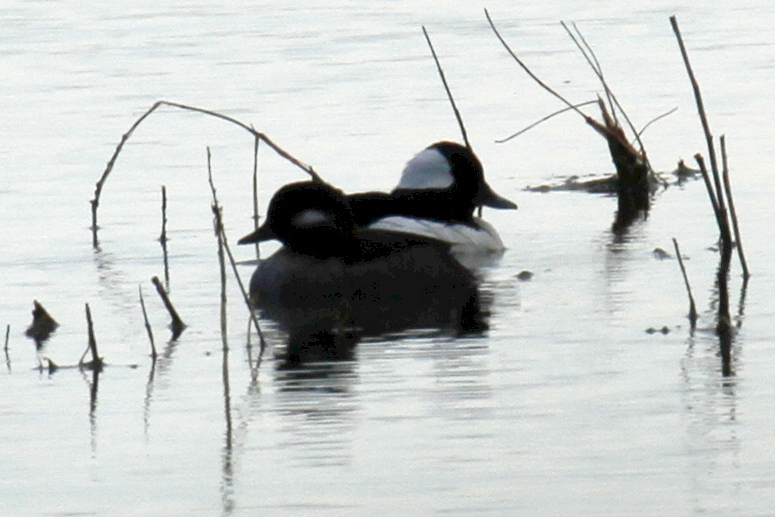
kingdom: Animalia
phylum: Chordata
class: Aves
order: Anseriformes
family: Anatidae
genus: Bucephala
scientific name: Bucephala albeola
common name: Bufflehead
